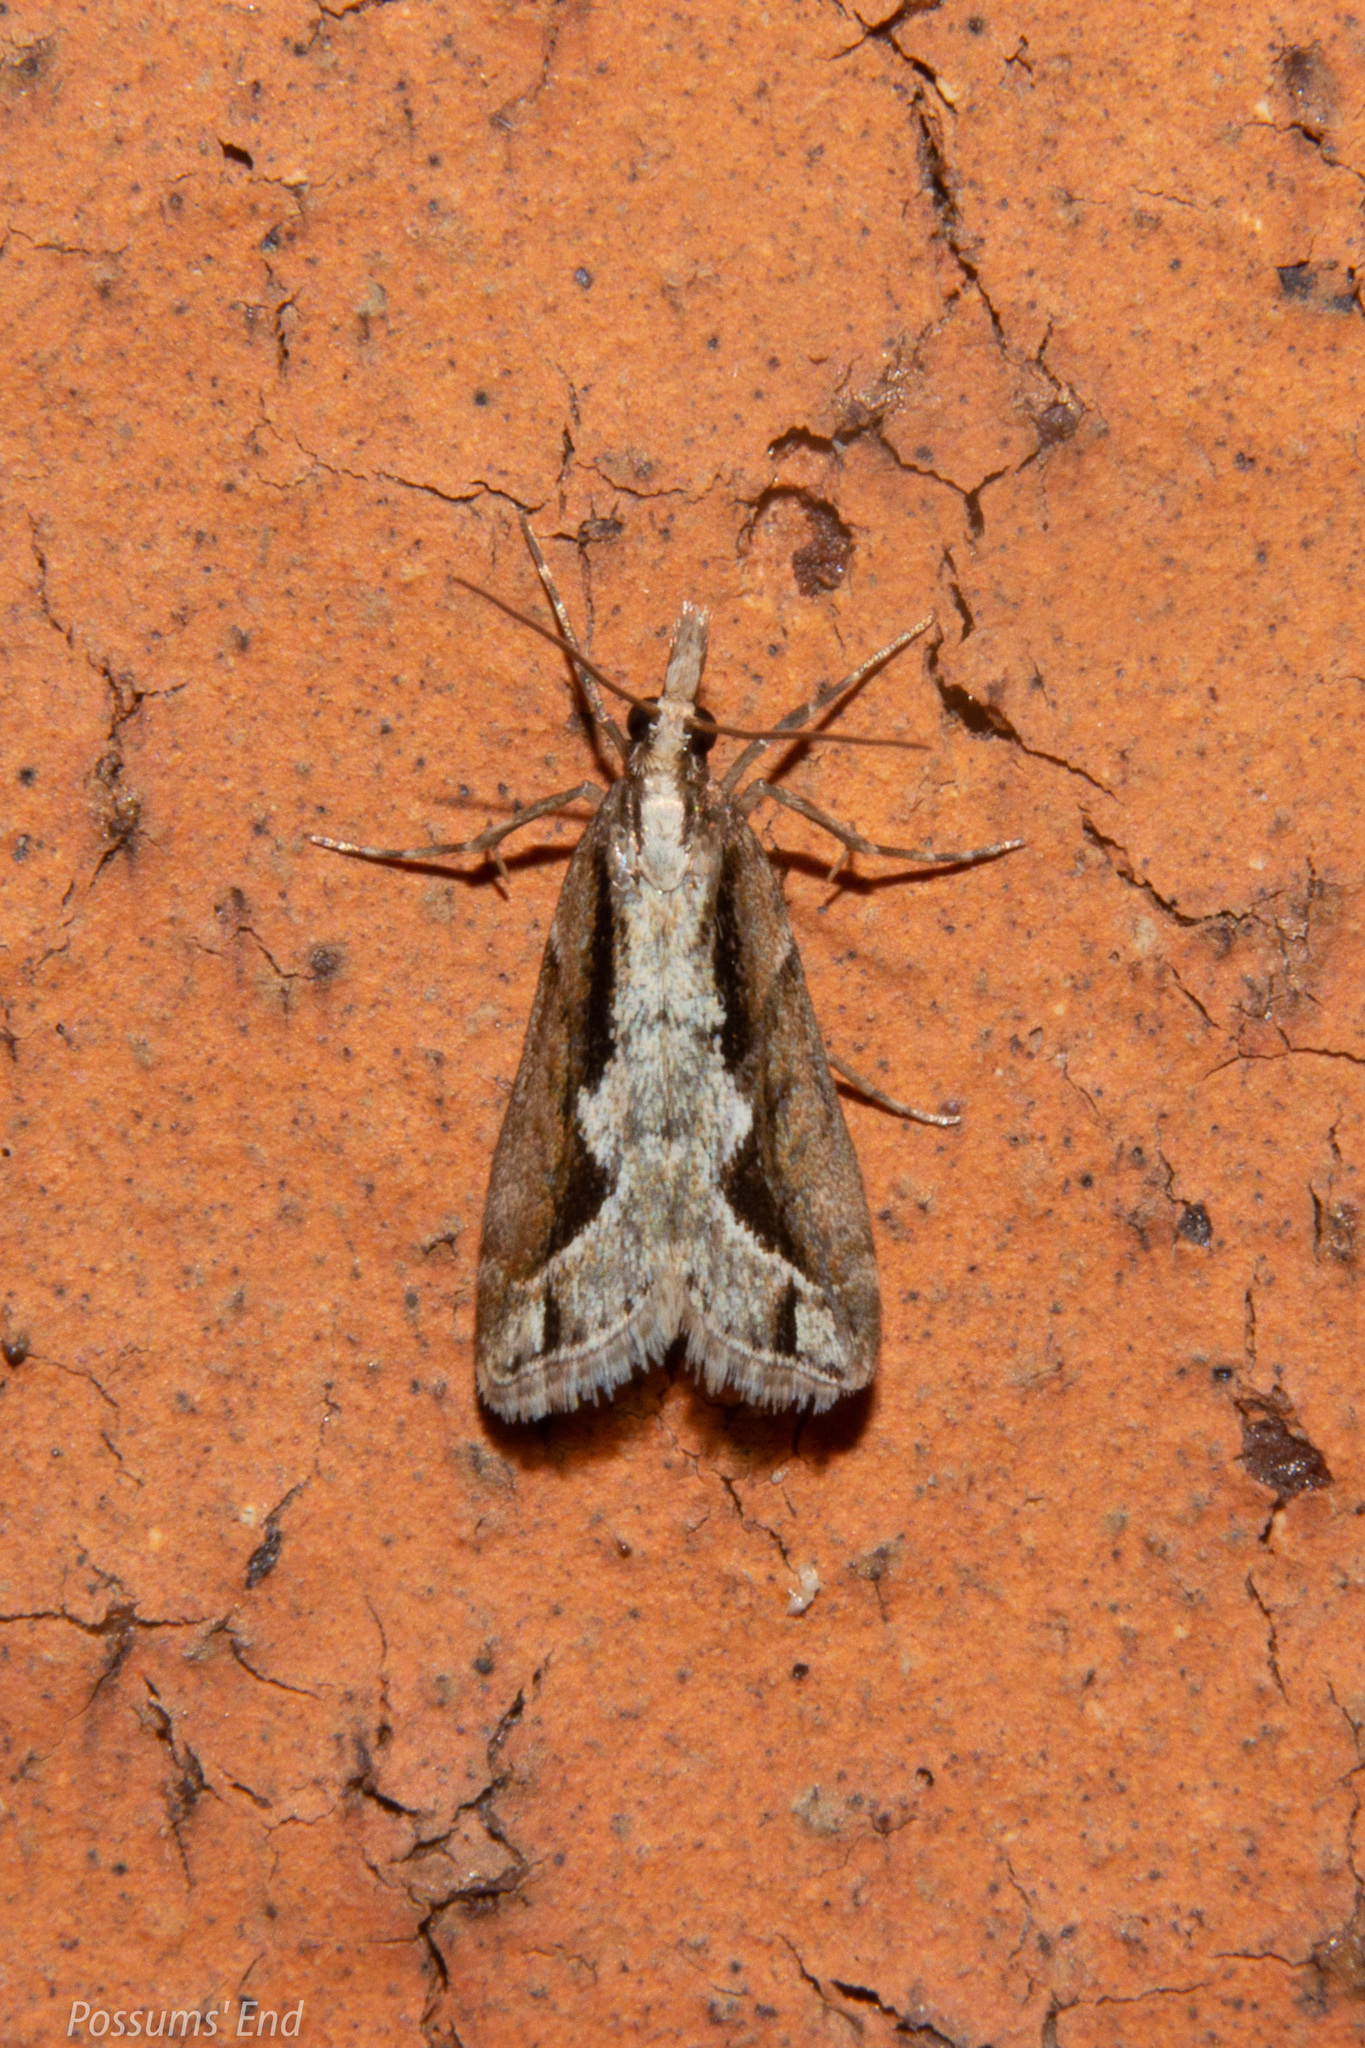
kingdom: Animalia
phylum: Arthropoda
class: Insecta
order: Lepidoptera
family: Crambidae
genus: Eudonia
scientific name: Eudonia steropaea
